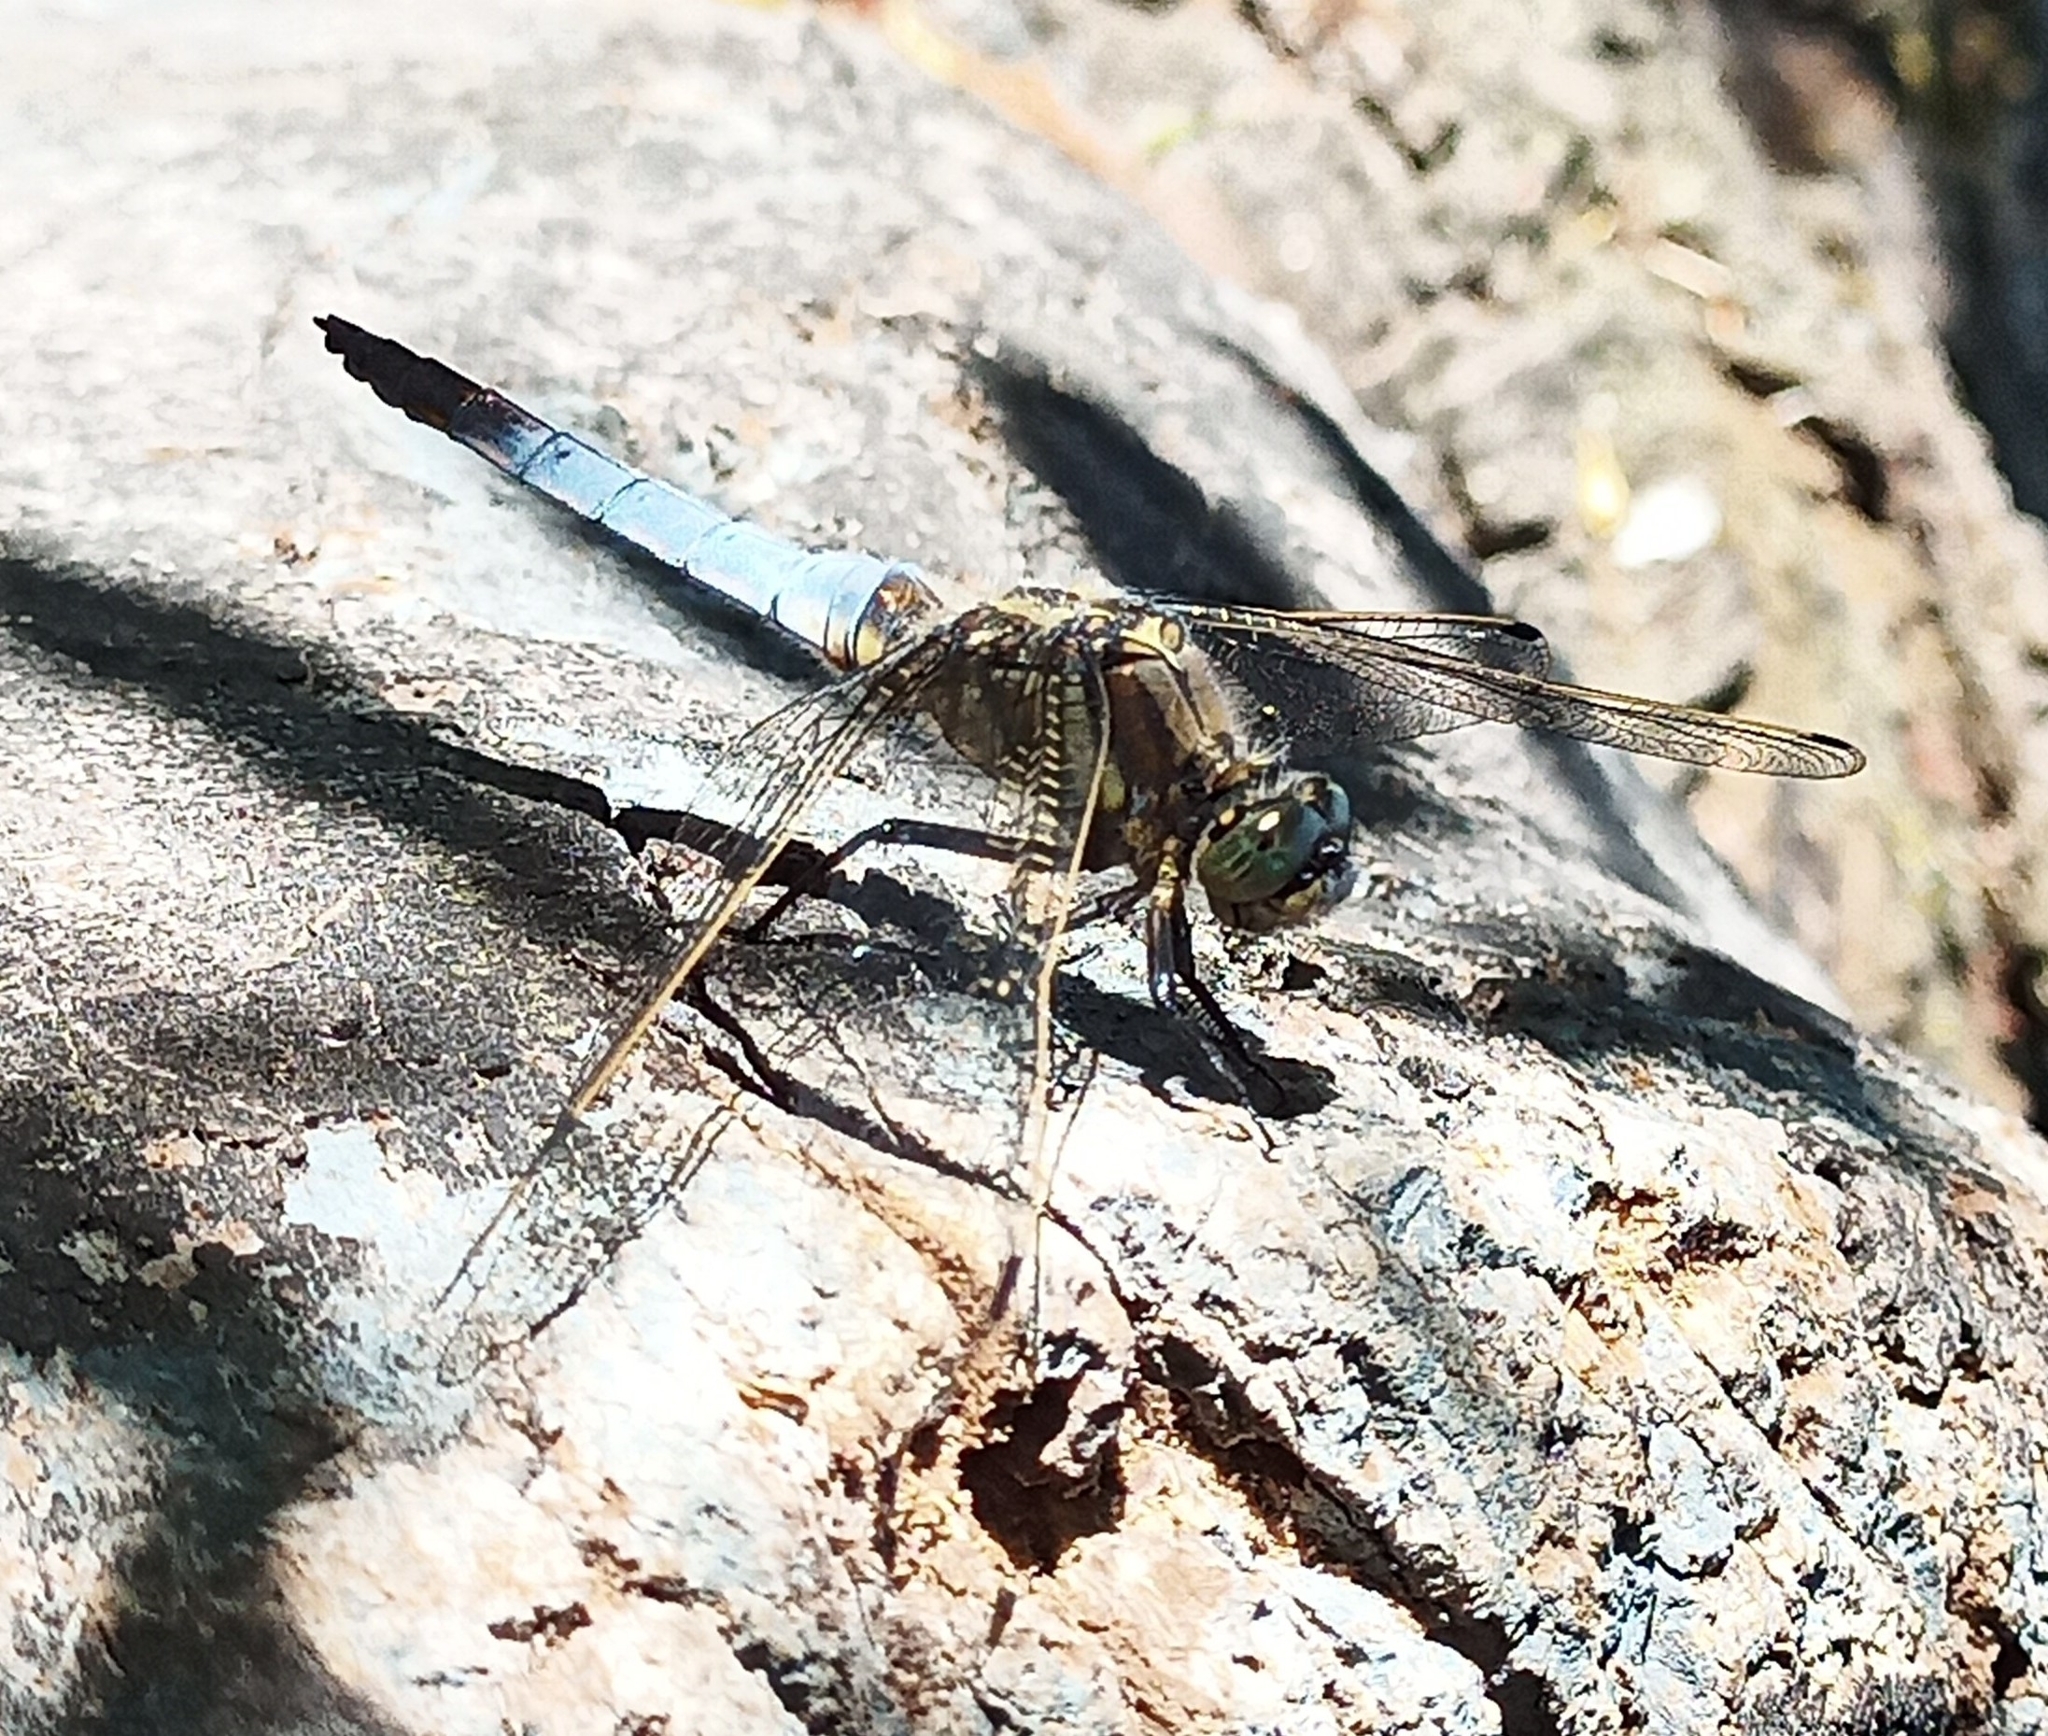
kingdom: Animalia
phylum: Arthropoda
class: Insecta
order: Odonata
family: Libellulidae
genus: Orthetrum
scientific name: Orthetrum cancellatum
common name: Black-tailed skimmer
